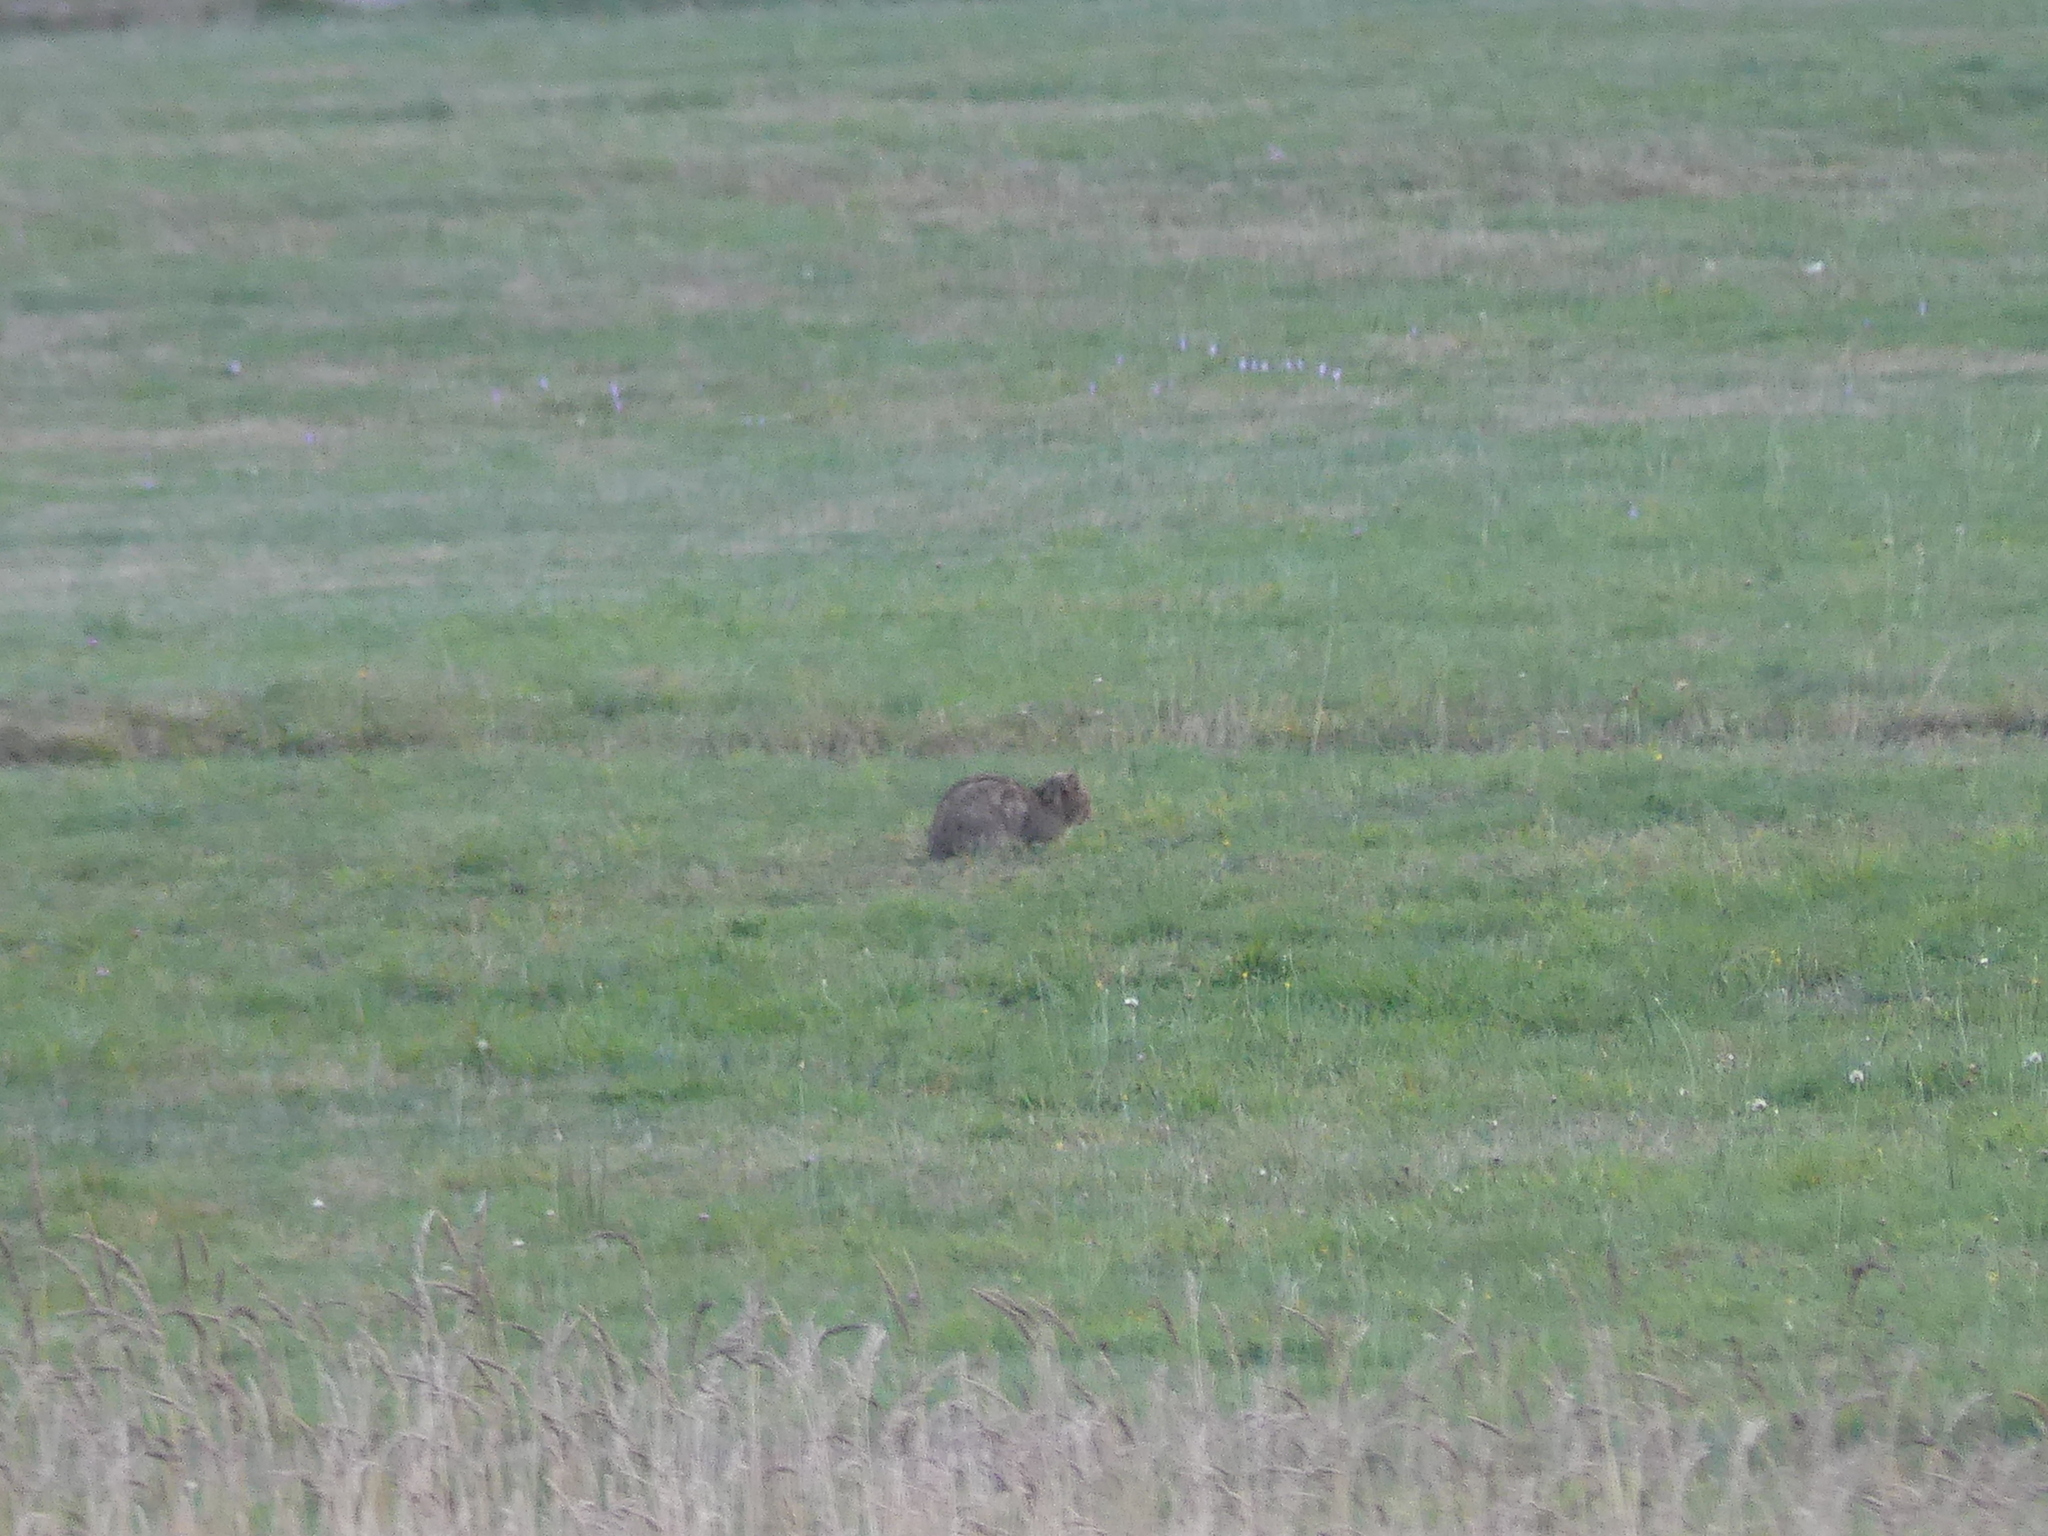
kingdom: Animalia
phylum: Chordata
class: Mammalia
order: Carnivora
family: Felidae
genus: Felis
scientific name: Felis silvestris
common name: Wildcat
